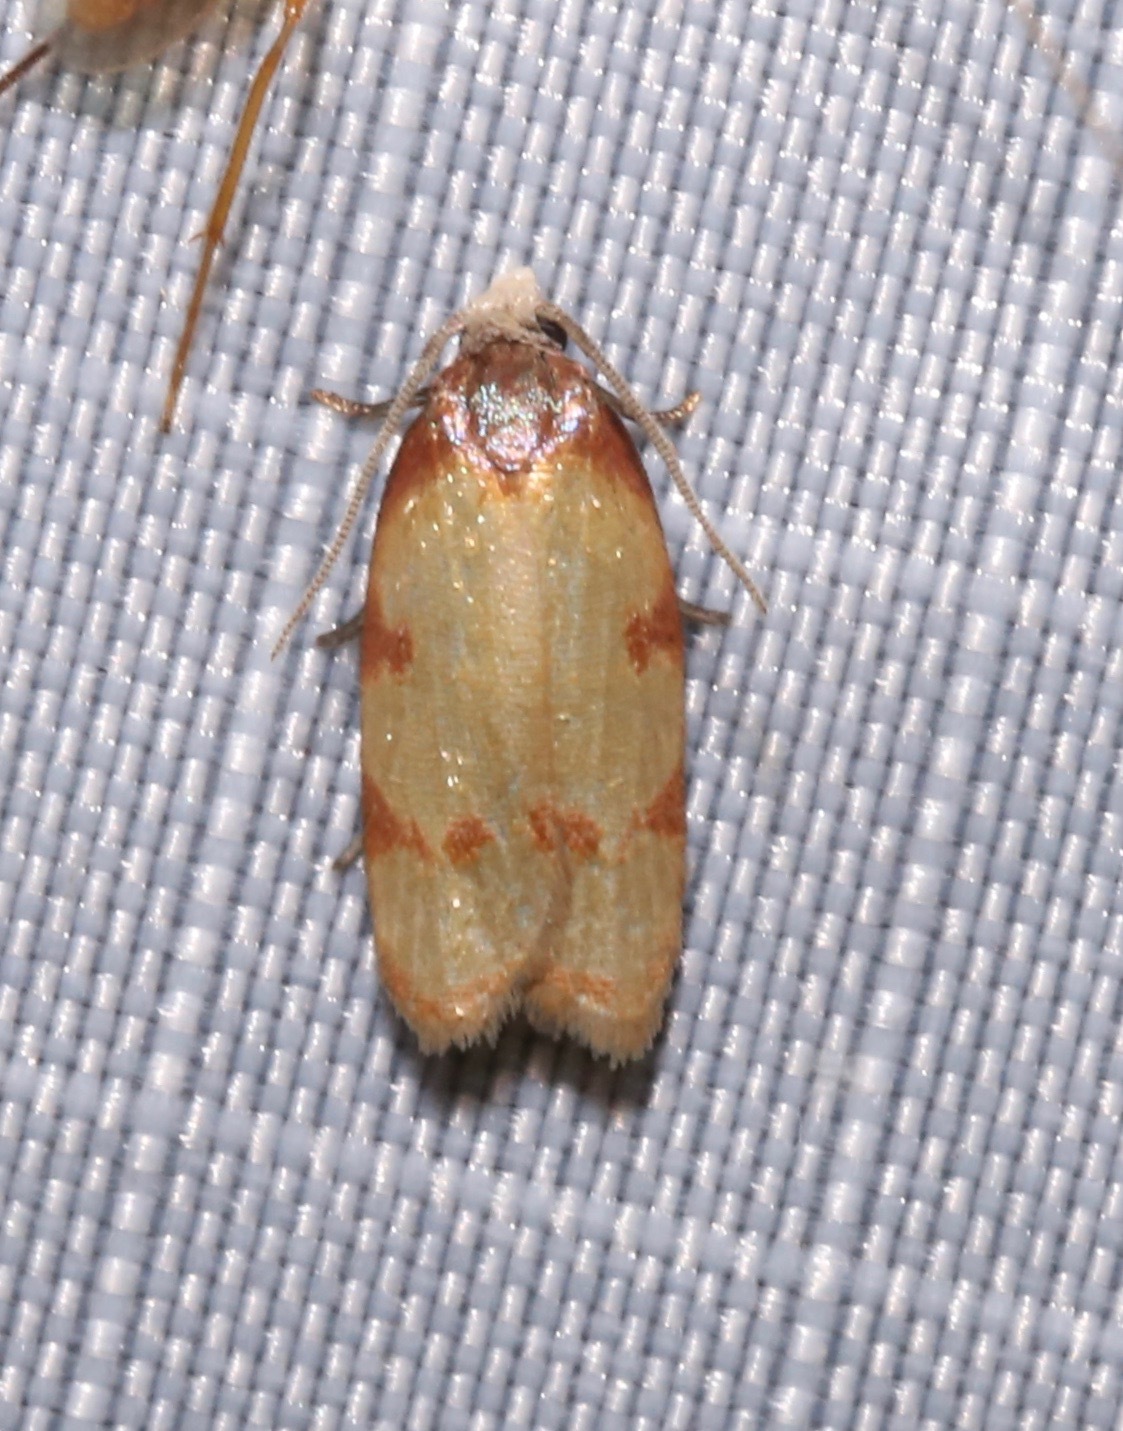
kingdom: Animalia
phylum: Arthropoda
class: Insecta
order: Lepidoptera
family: Tortricidae
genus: Sparganothis
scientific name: Sparganothis lindalinea
